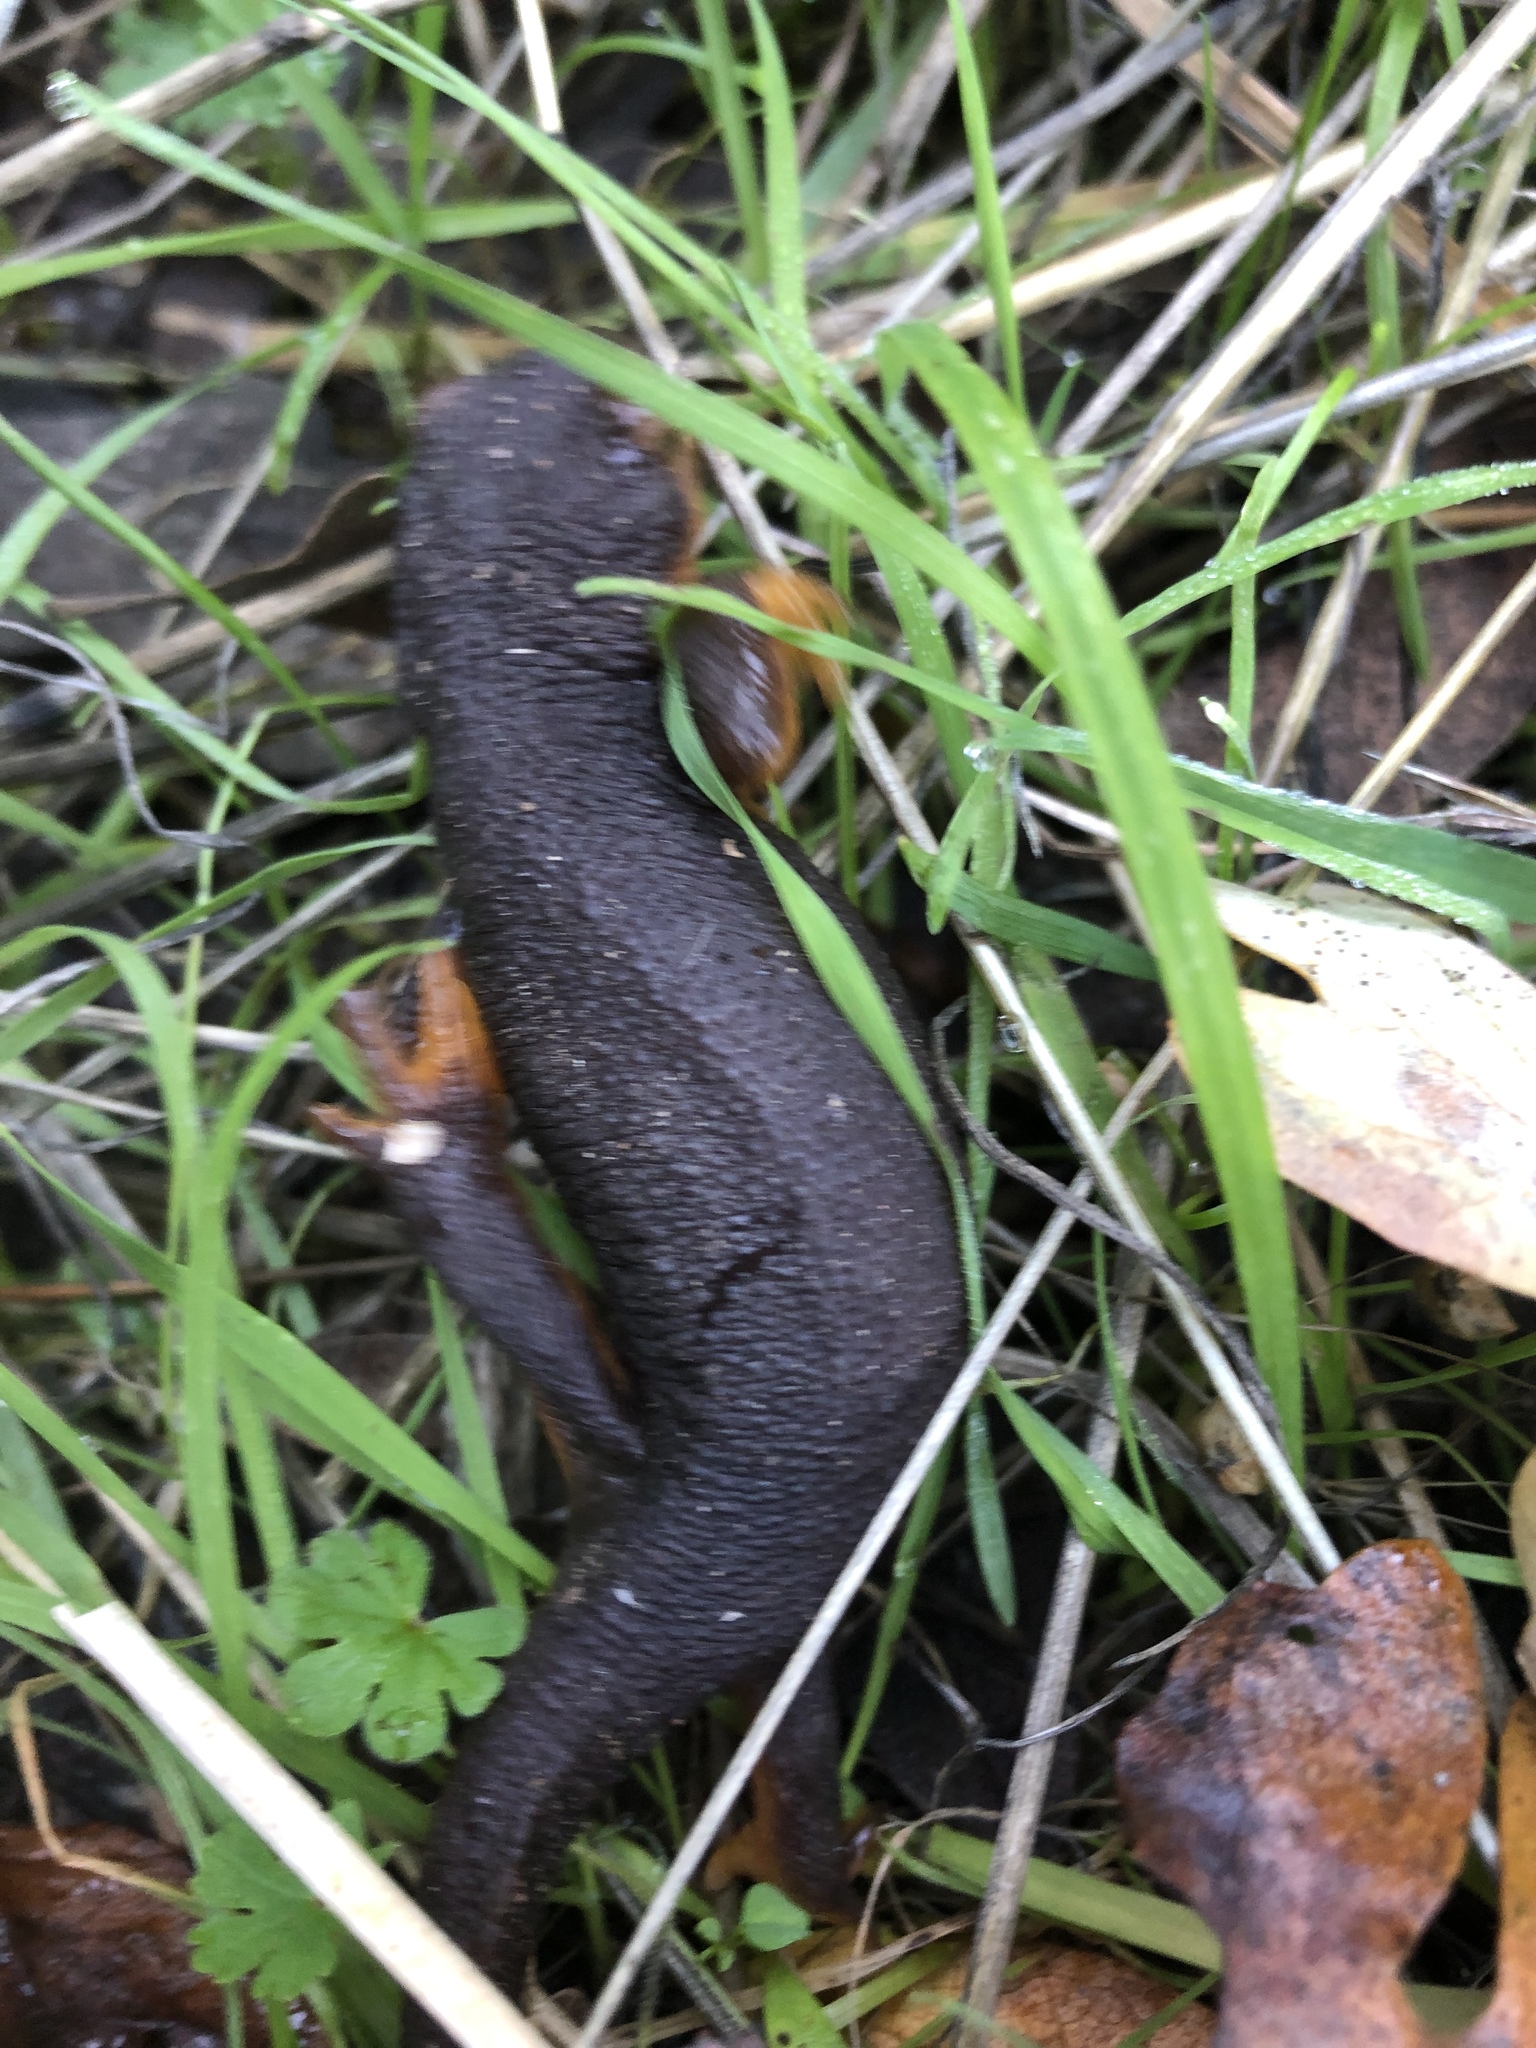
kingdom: Animalia
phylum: Chordata
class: Amphibia
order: Caudata
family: Salamandridae
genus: Taricha
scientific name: Taricha torosa
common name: California newt
